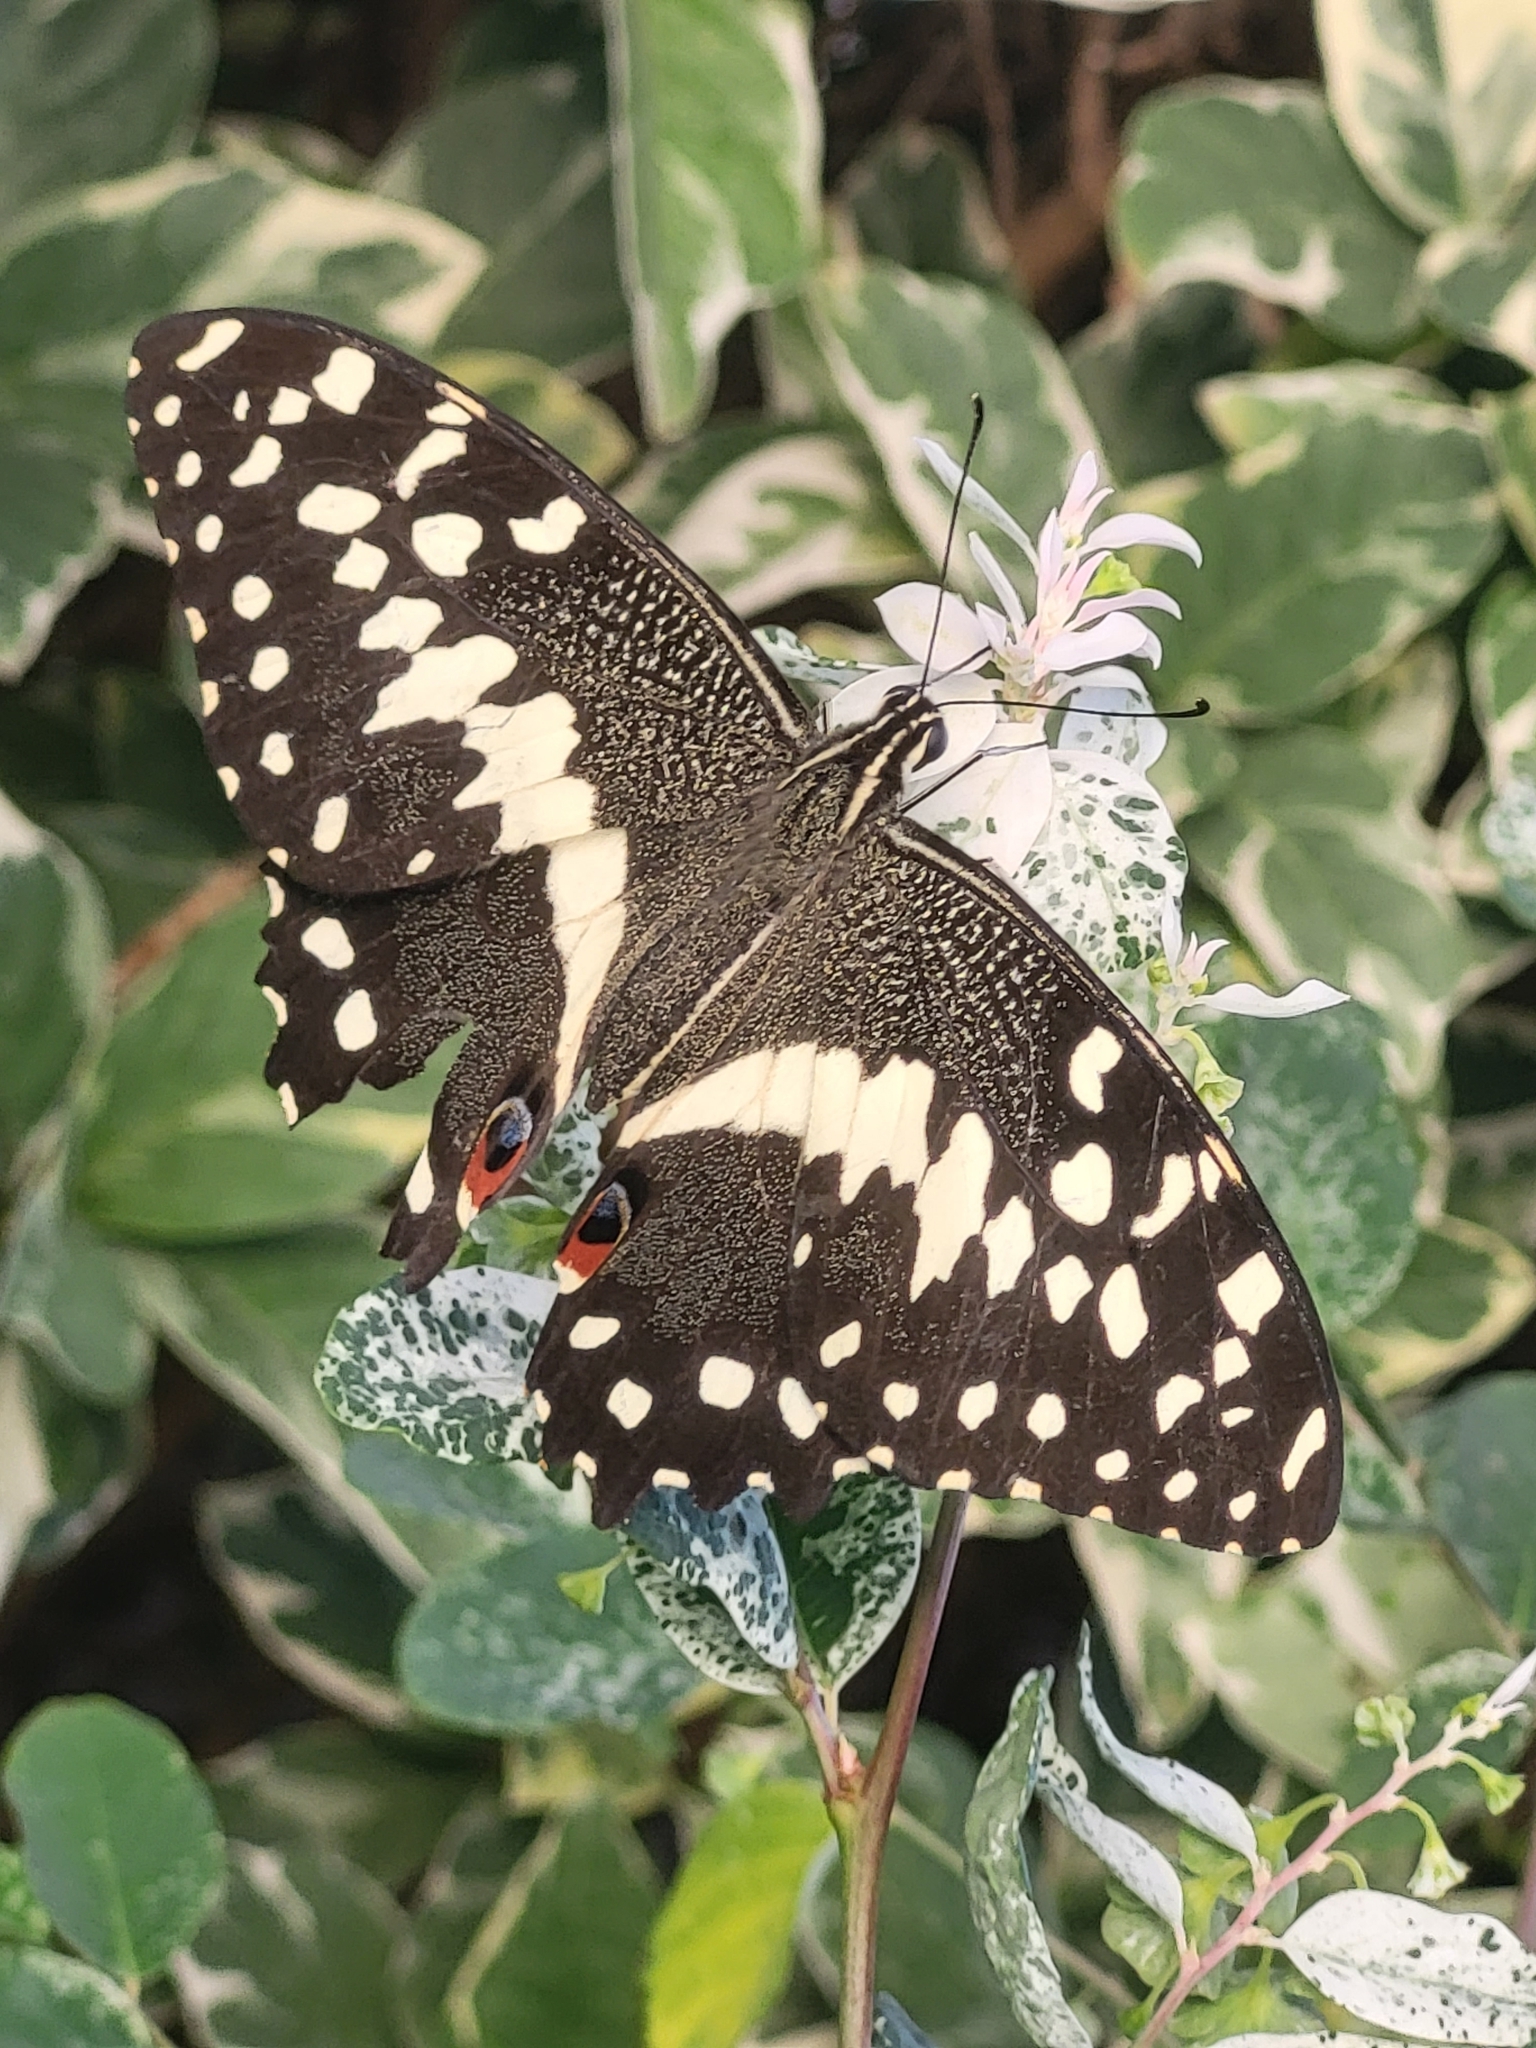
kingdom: Animalia
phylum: Arthropoda
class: Insecta
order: Lepidoptera
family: Papilionidae
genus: Papilio
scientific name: Papilio demodocus
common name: Christmas butterfly
